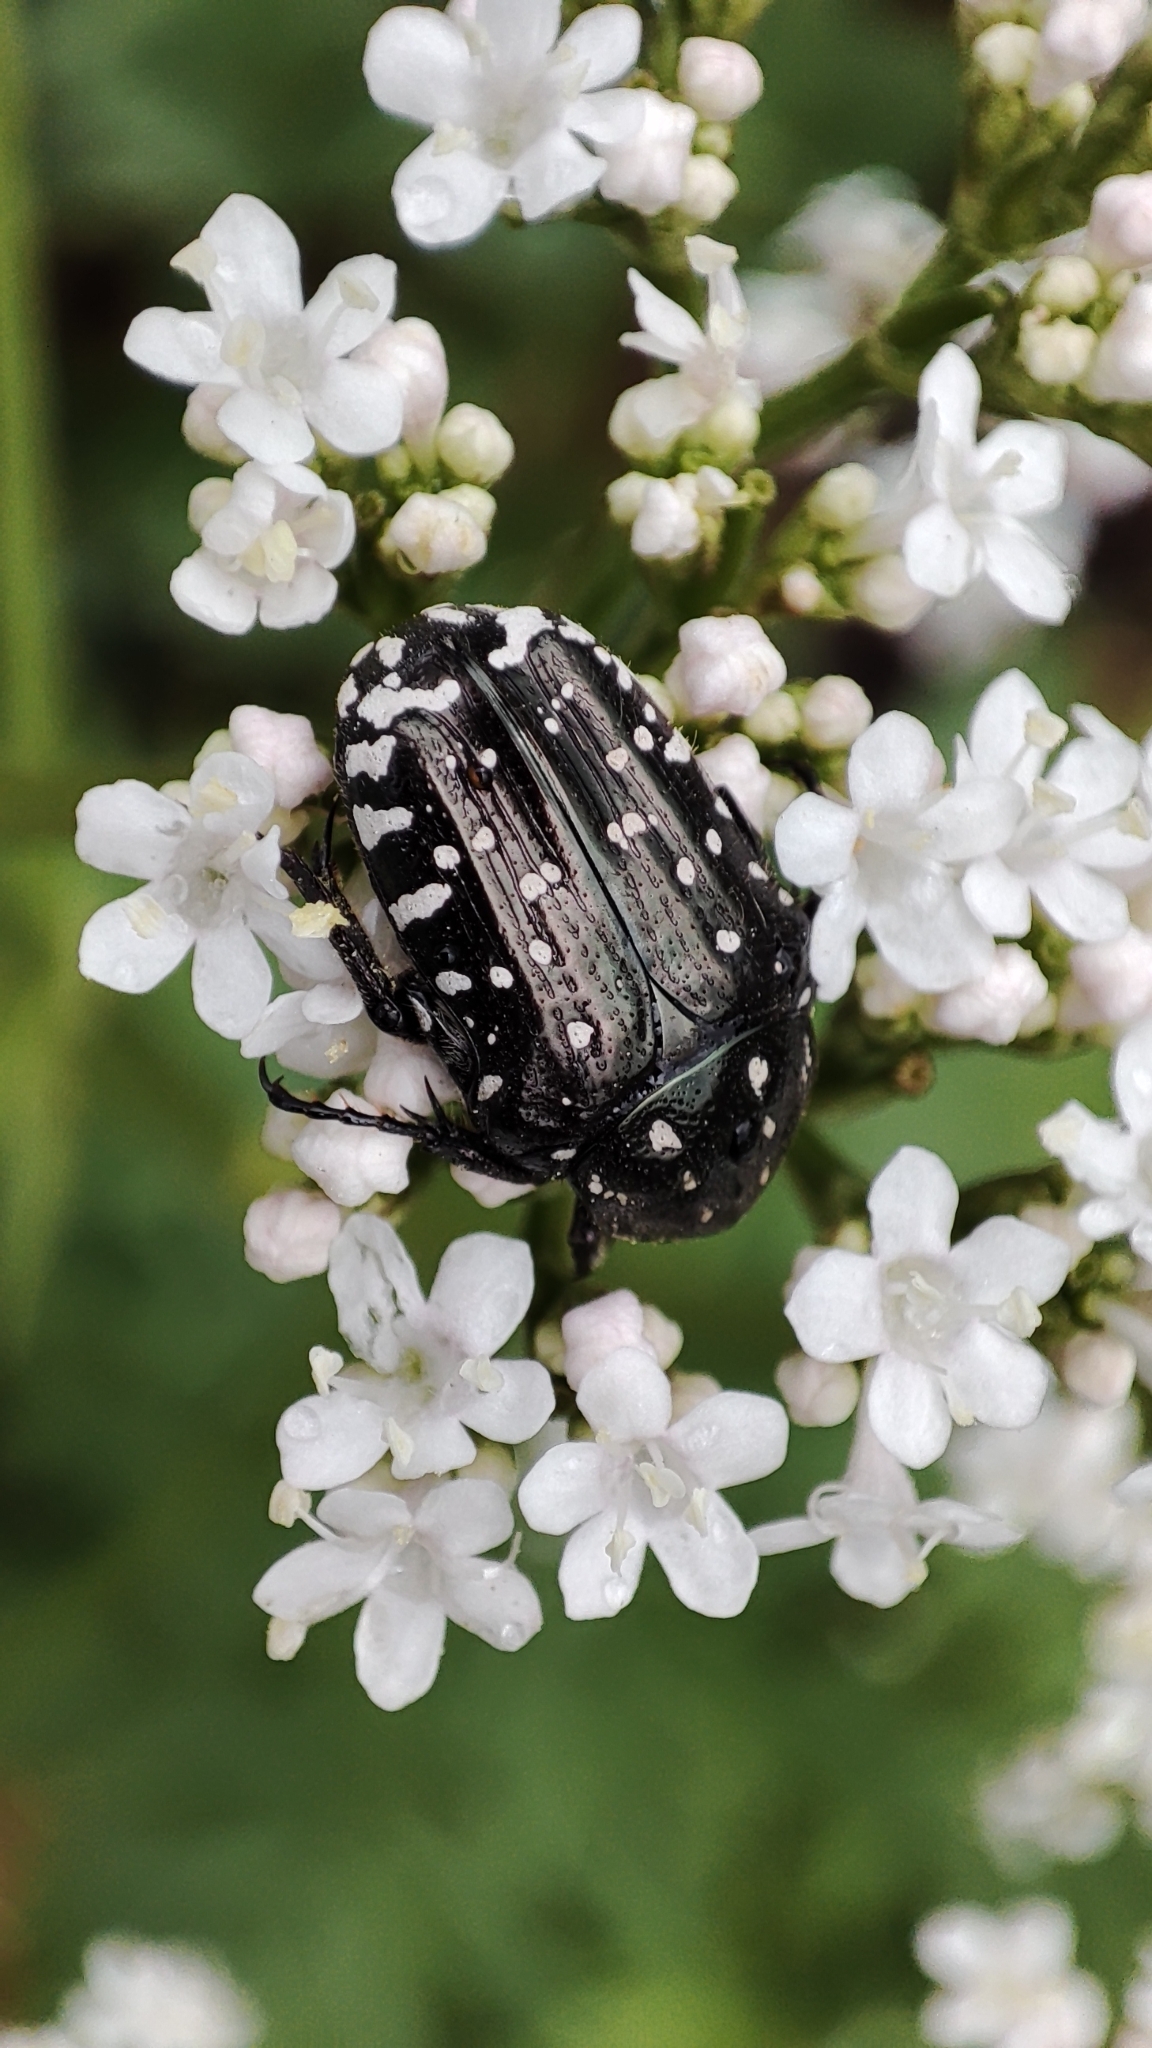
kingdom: Animalia
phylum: Arthropoda
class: Insecta
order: Coleoptera
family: Scarabaeidae
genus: Oxythyrea
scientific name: Oxythyrea funesta
